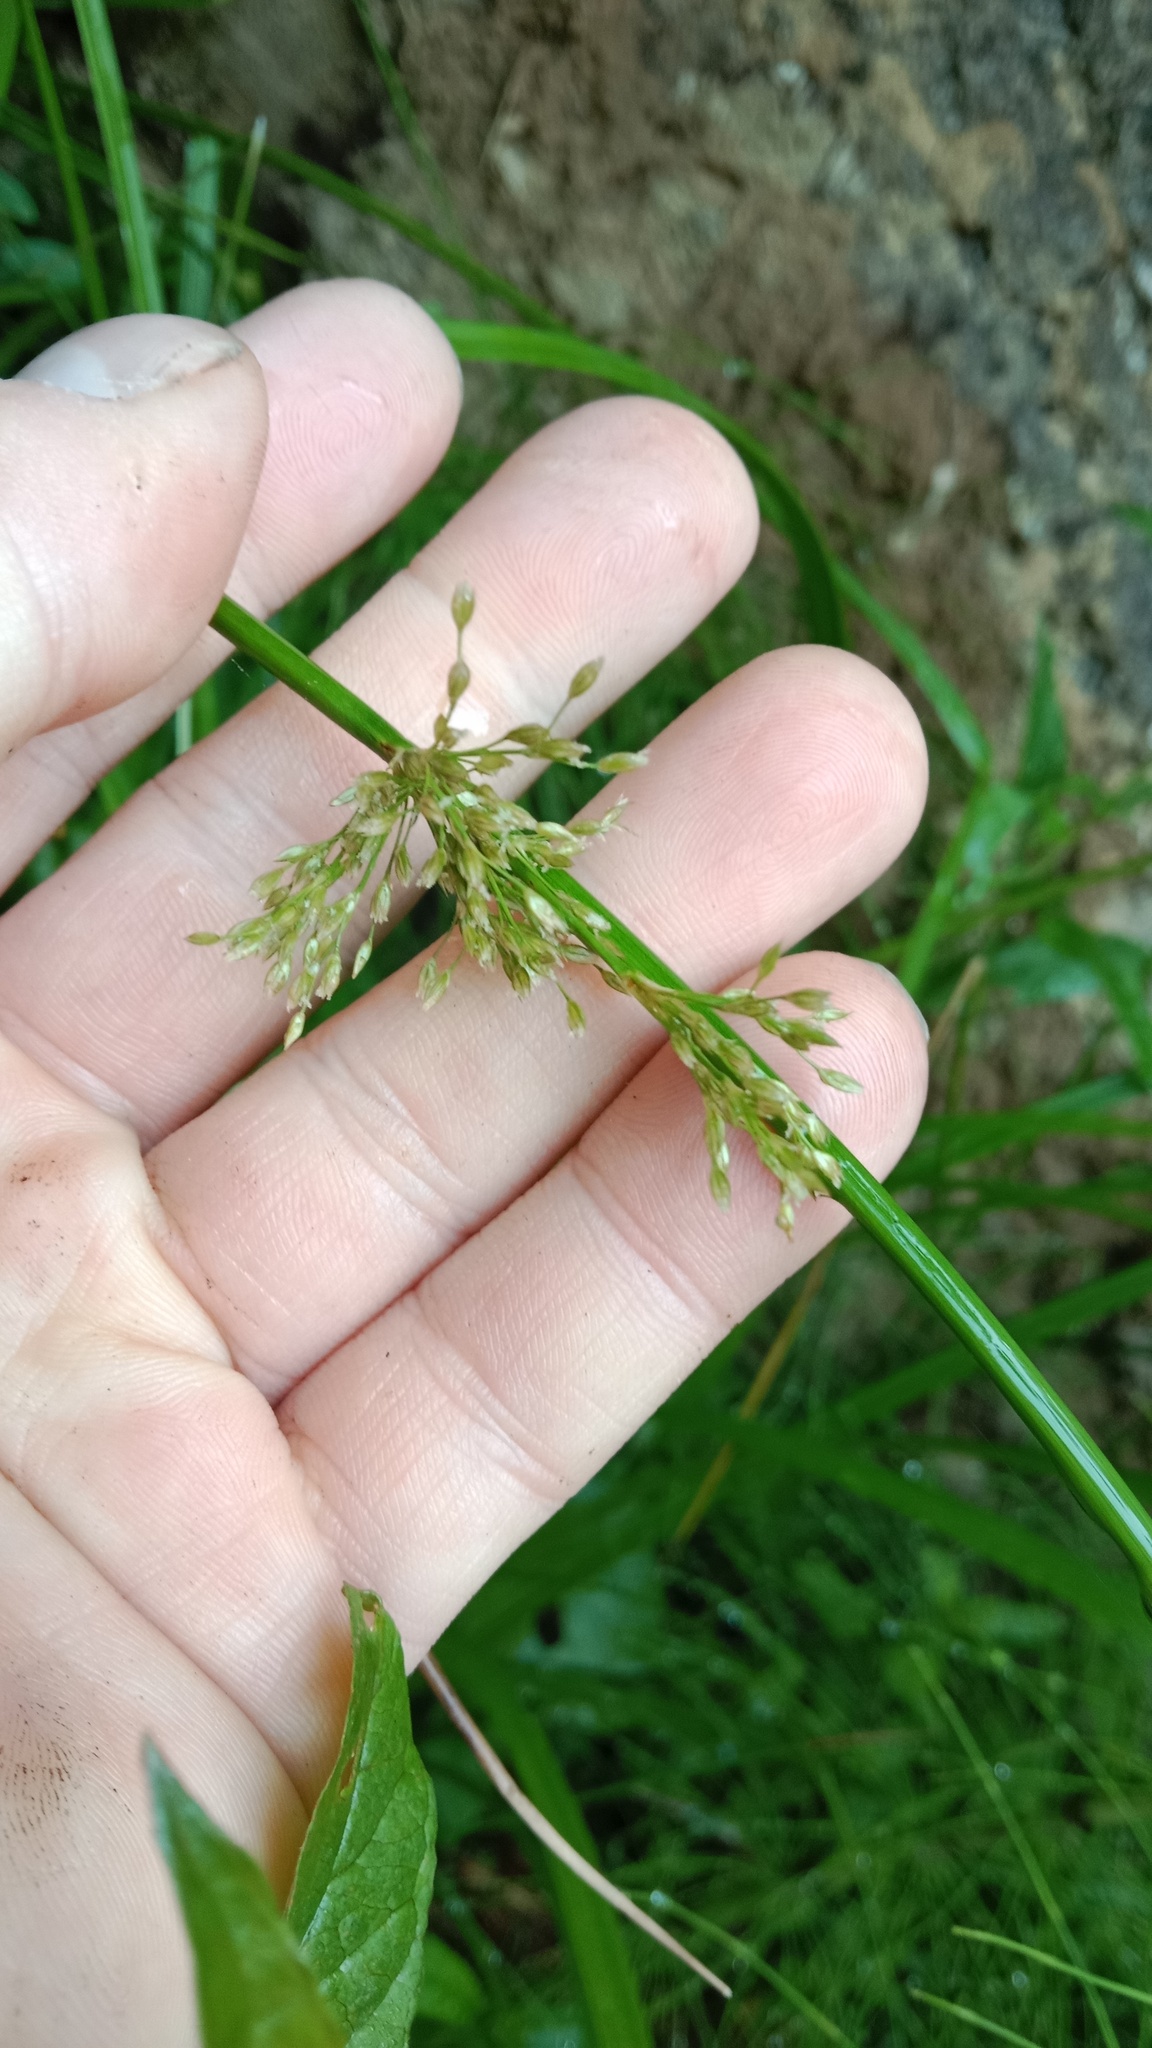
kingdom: Plantae
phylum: Tracheophyta
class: Liliopsida
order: Poales
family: Juncaceae
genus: Juncus
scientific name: Juncus effusus
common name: Soft rush
